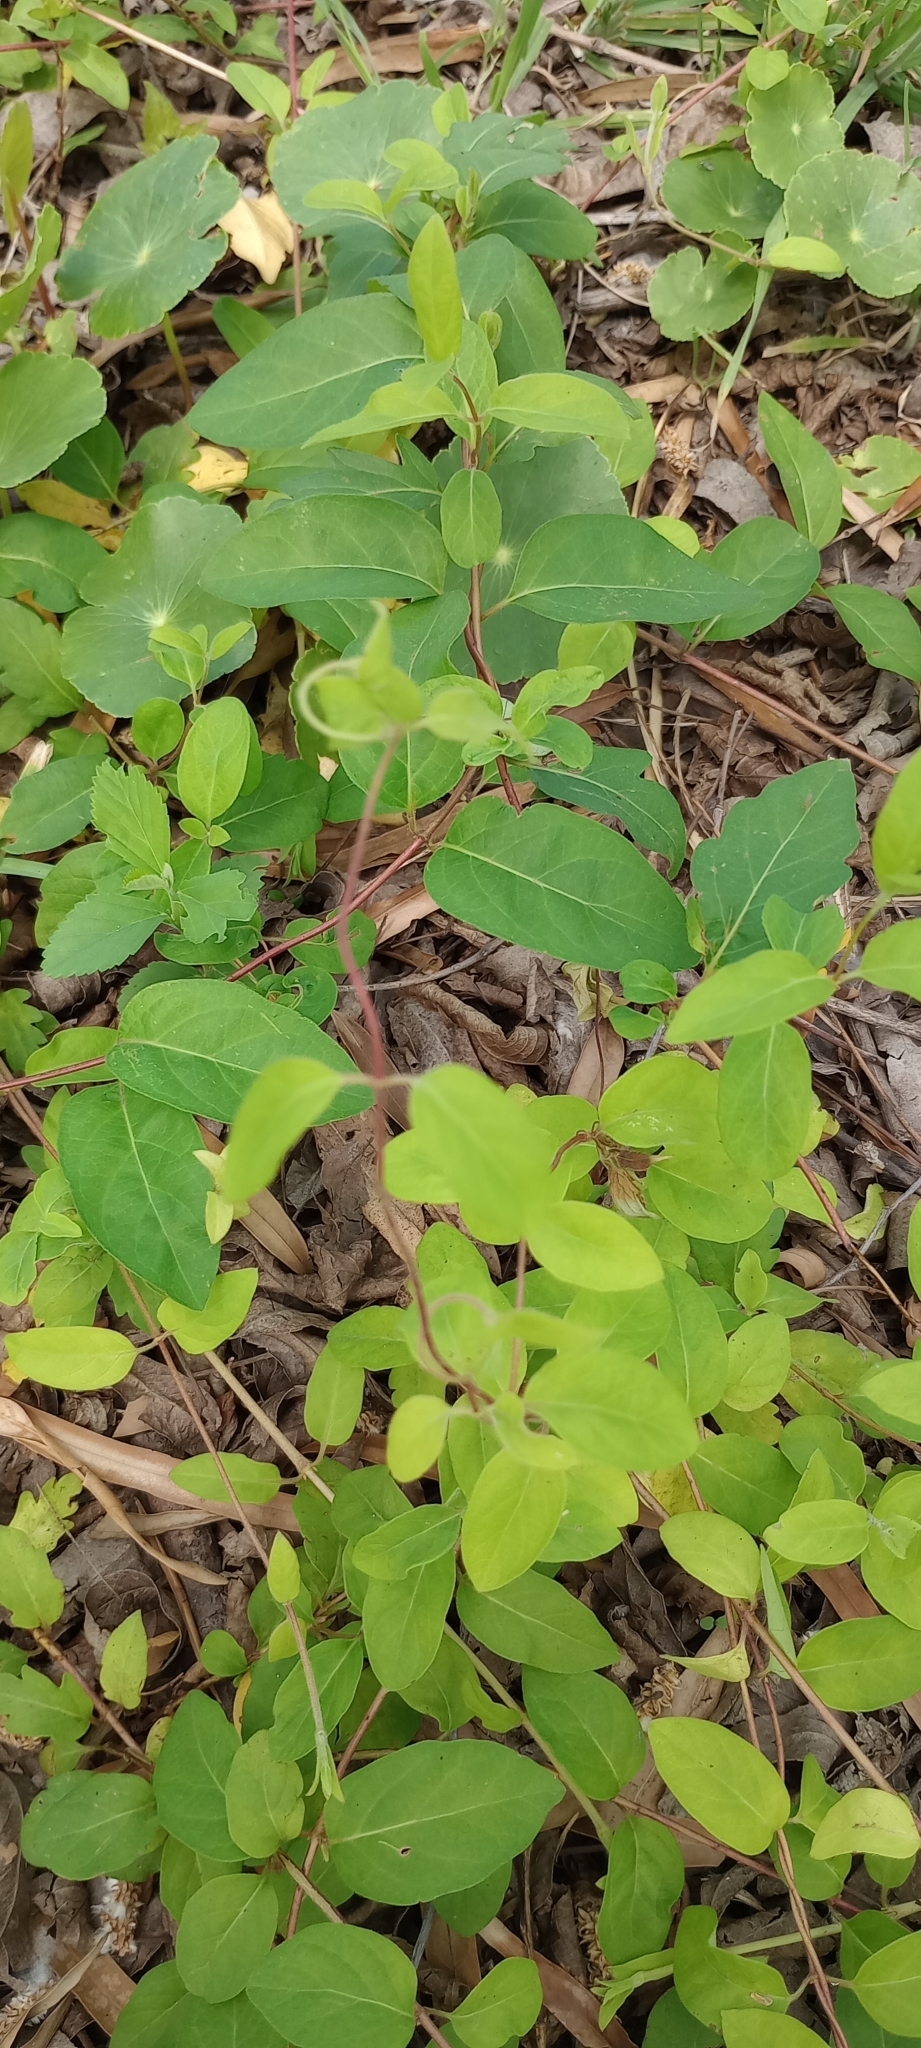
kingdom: Plantae
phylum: Tracheophyta
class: Magnoliopsida
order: Dipsacales
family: Caprifoliaceae
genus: Lonicera
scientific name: Lonicera japonica
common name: Japanese honeysuckle
